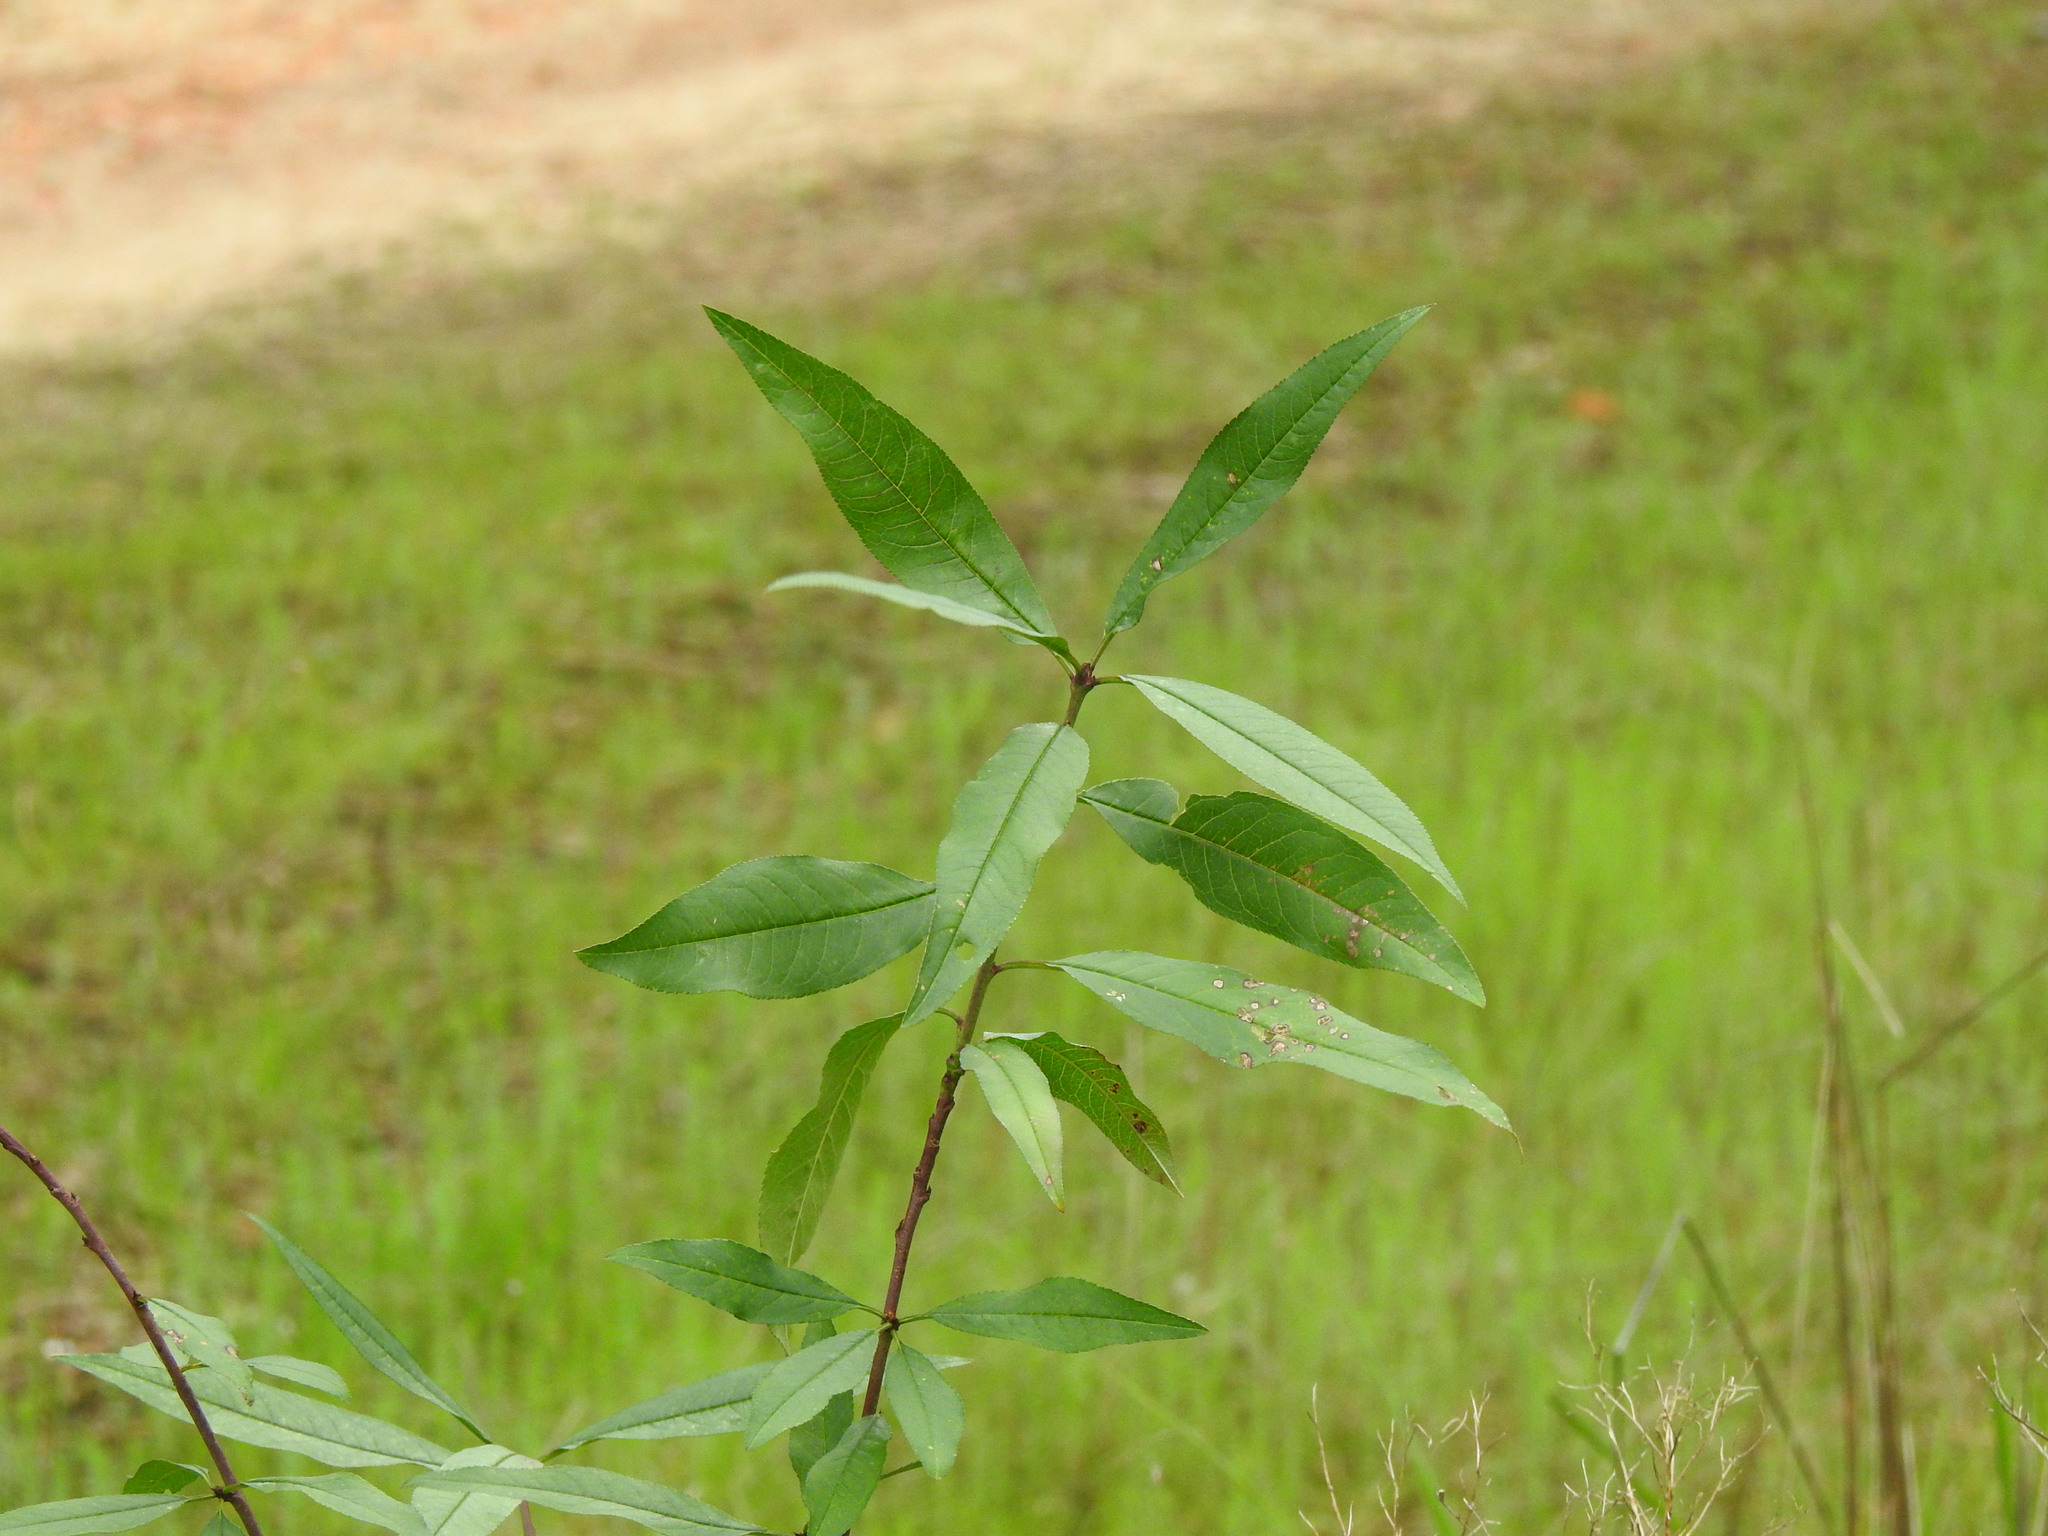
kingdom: Plantae
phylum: Tracheophyta
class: Magnoliopsida
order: Rosales
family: Rosaceae
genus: Prunus
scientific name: Prunus persica
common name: Peach
